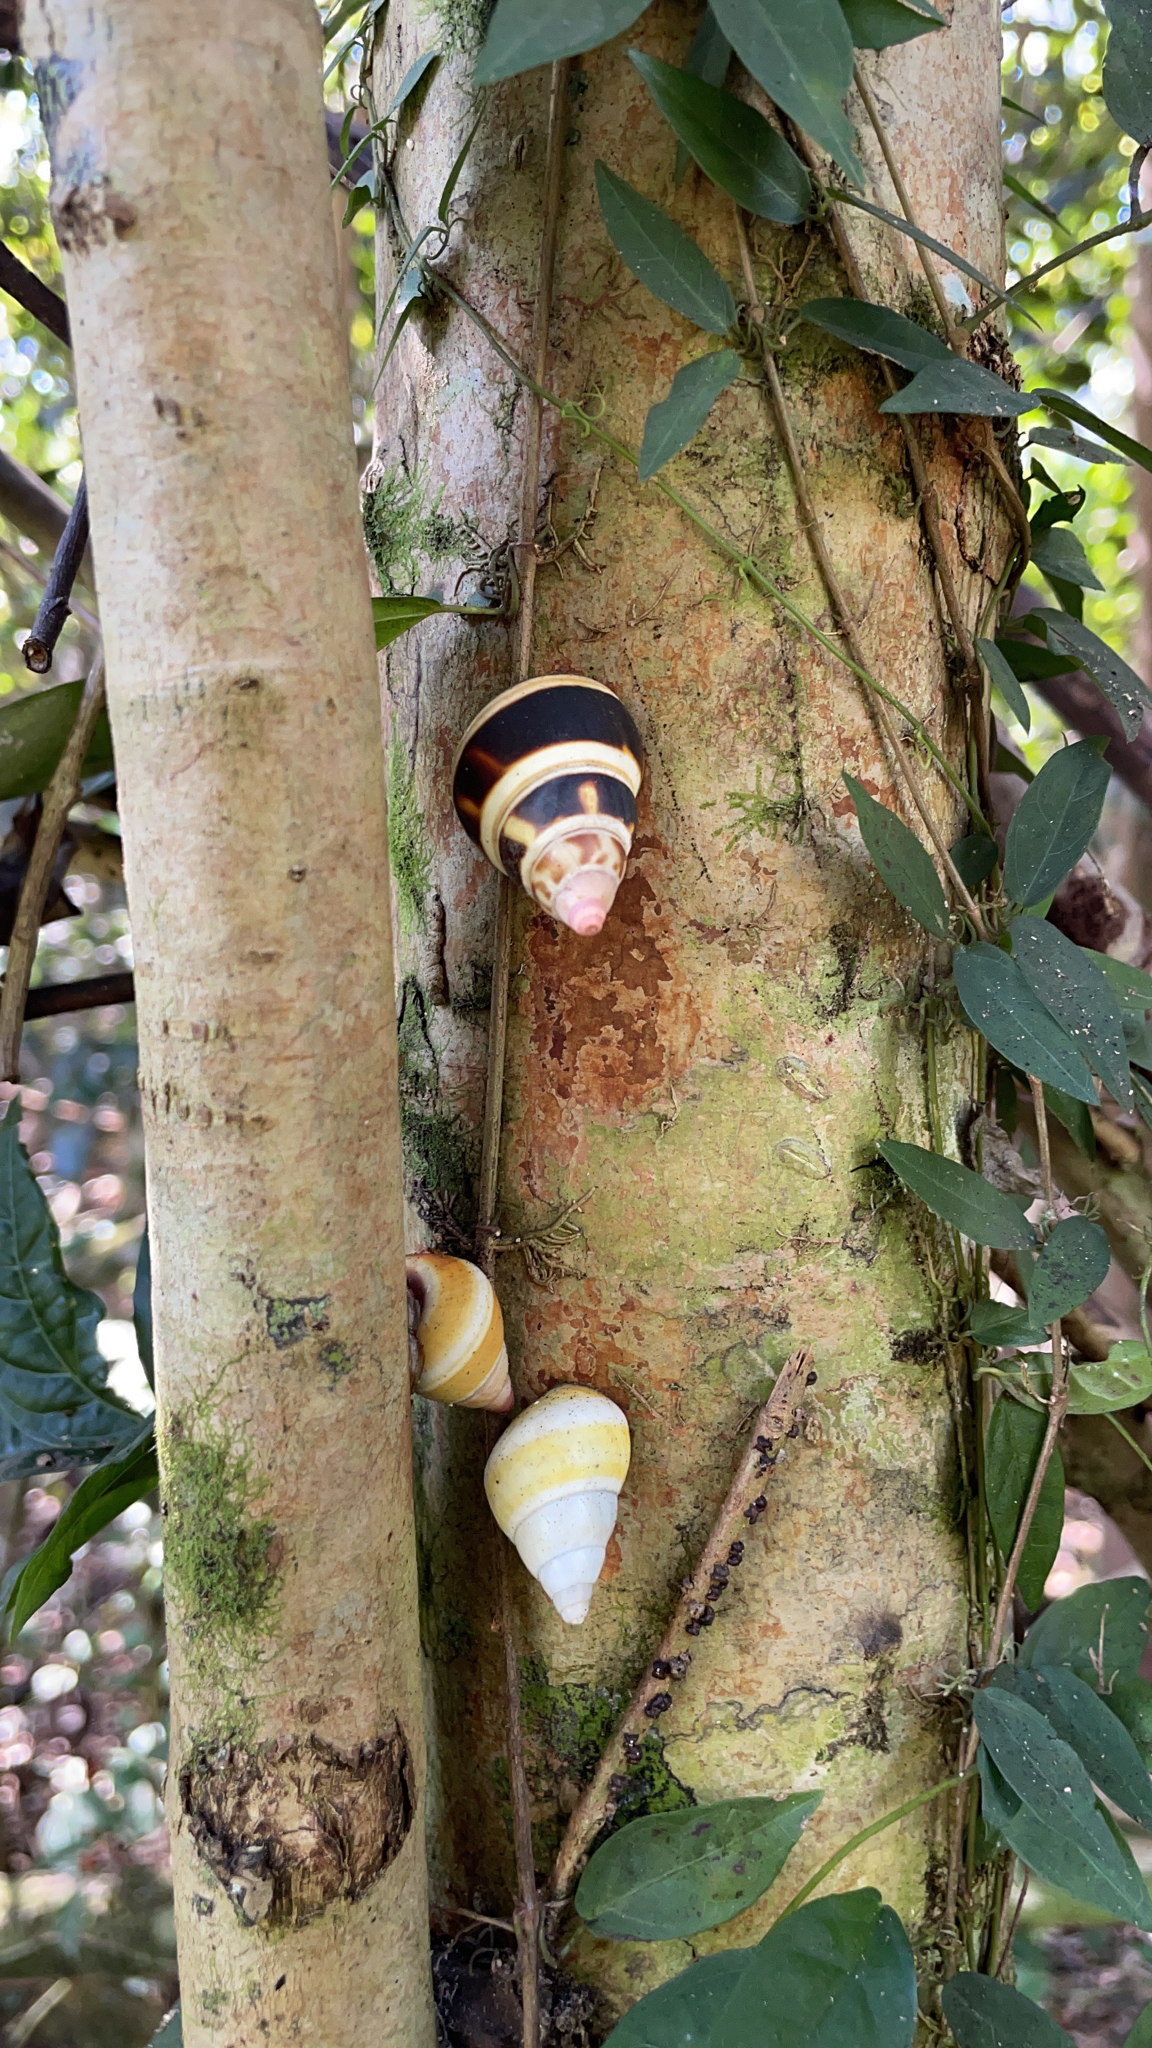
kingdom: Animalia
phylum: Mollusca
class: Gastropoda
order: Stylommatophora
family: Orthalicidae
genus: Liguus
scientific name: Liguus fasciatus
